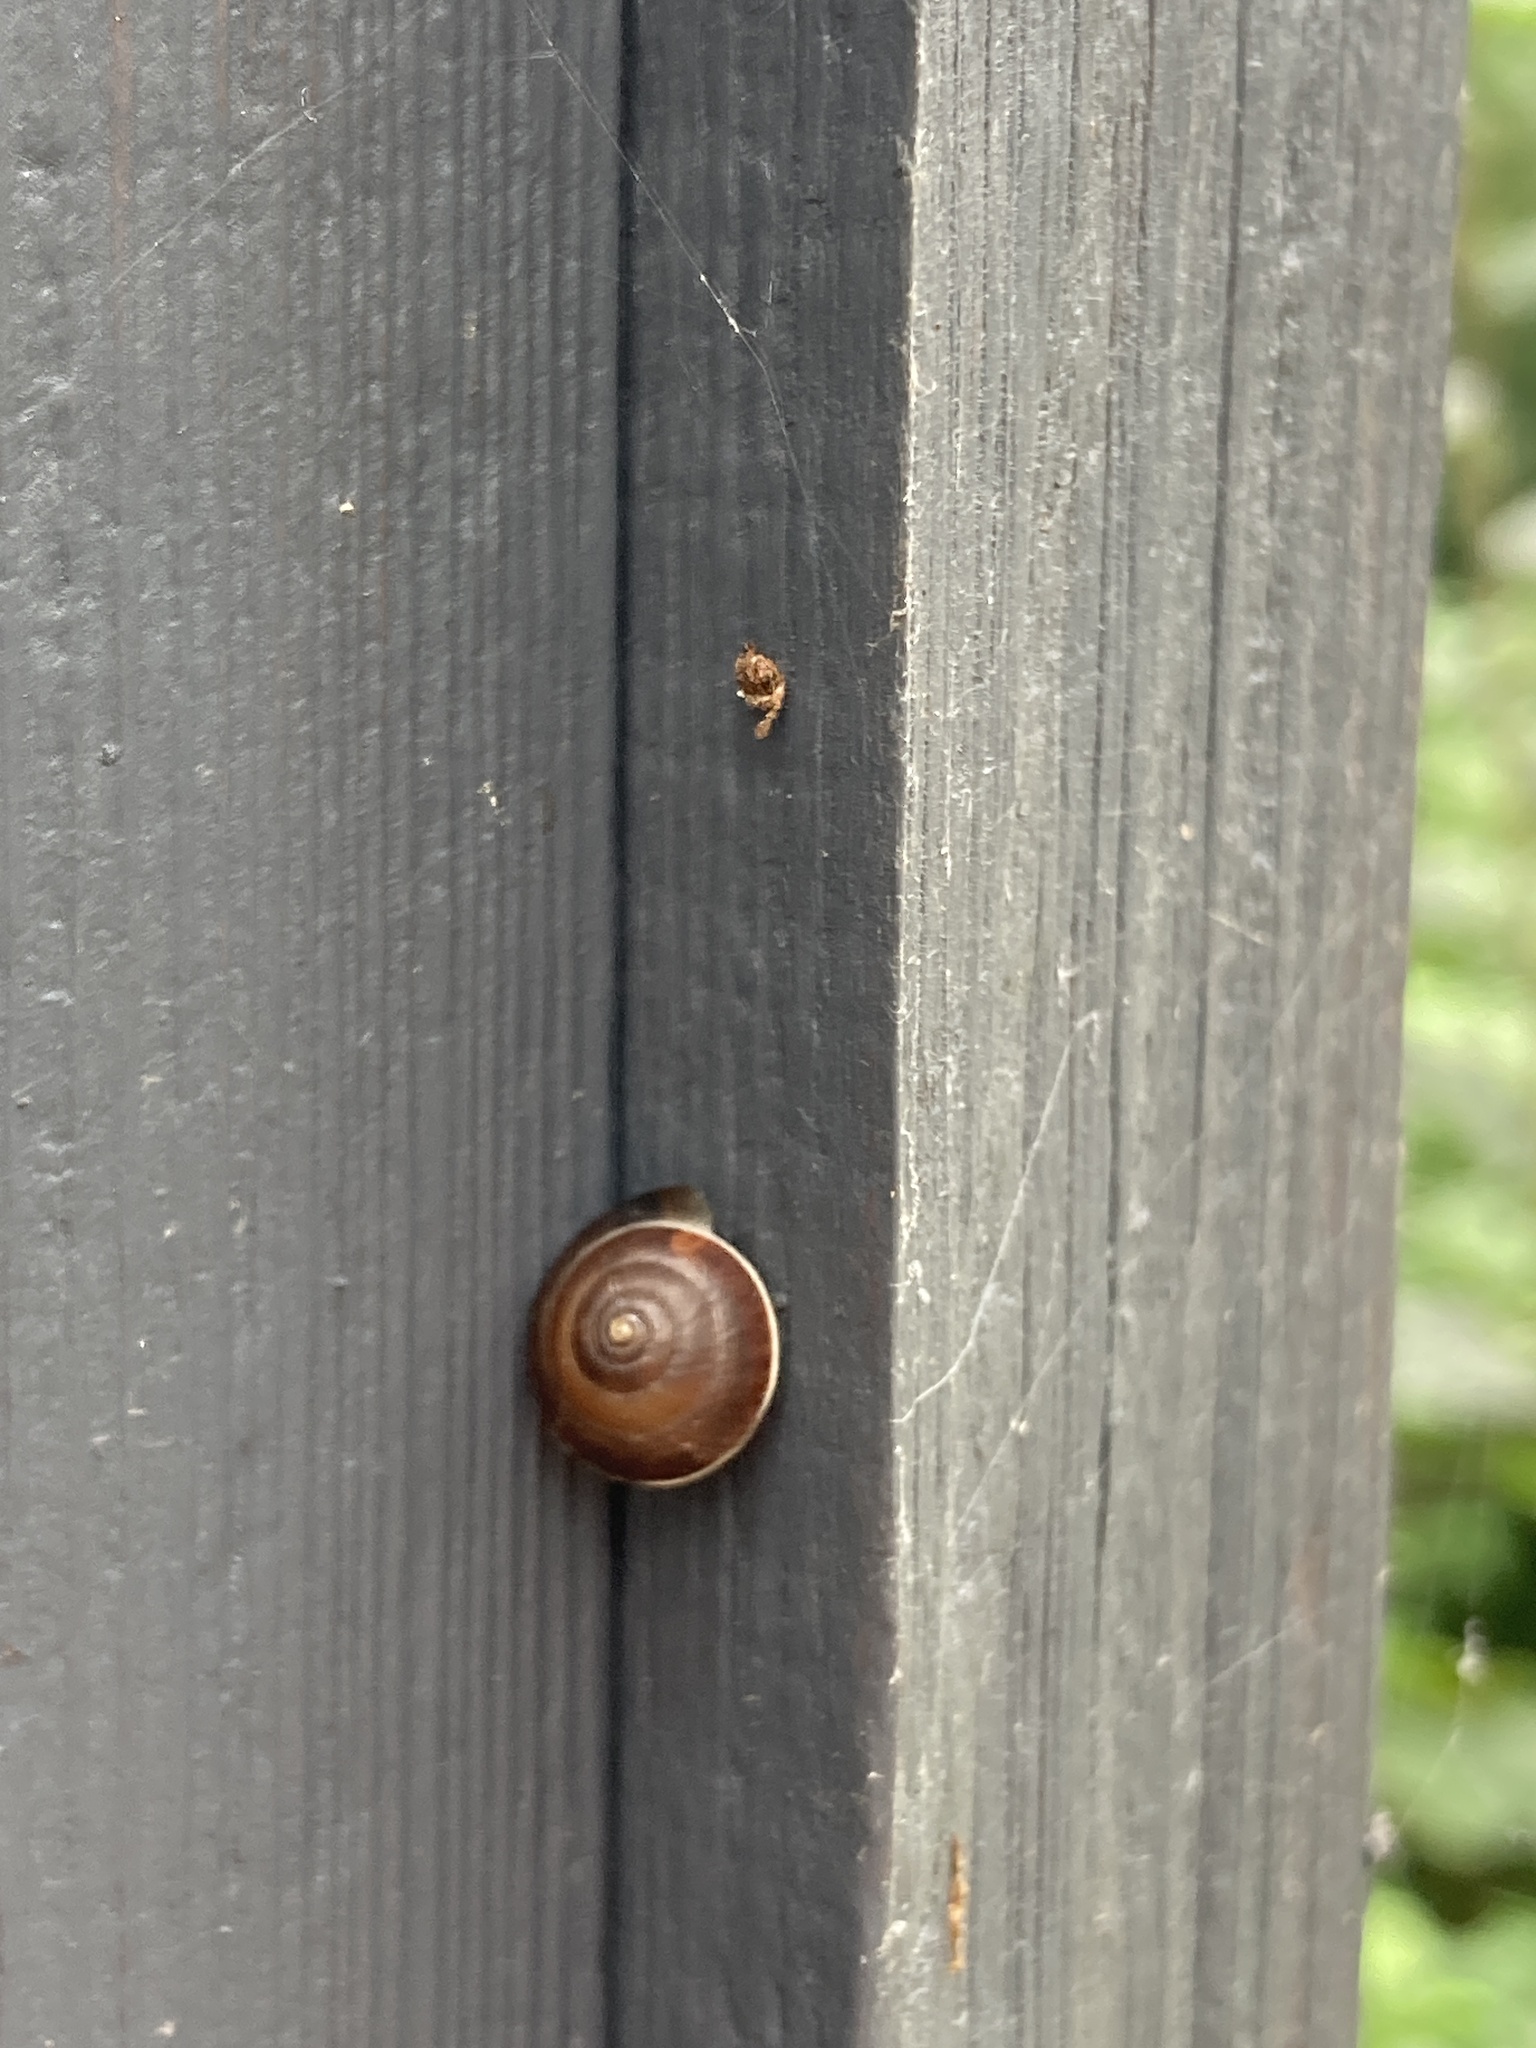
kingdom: Animalia
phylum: Mollusca
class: Gastropoda
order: Stylommatophora
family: Hygromiidae
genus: Hygromia
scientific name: Hygromia cinctella
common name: Girdled snail
